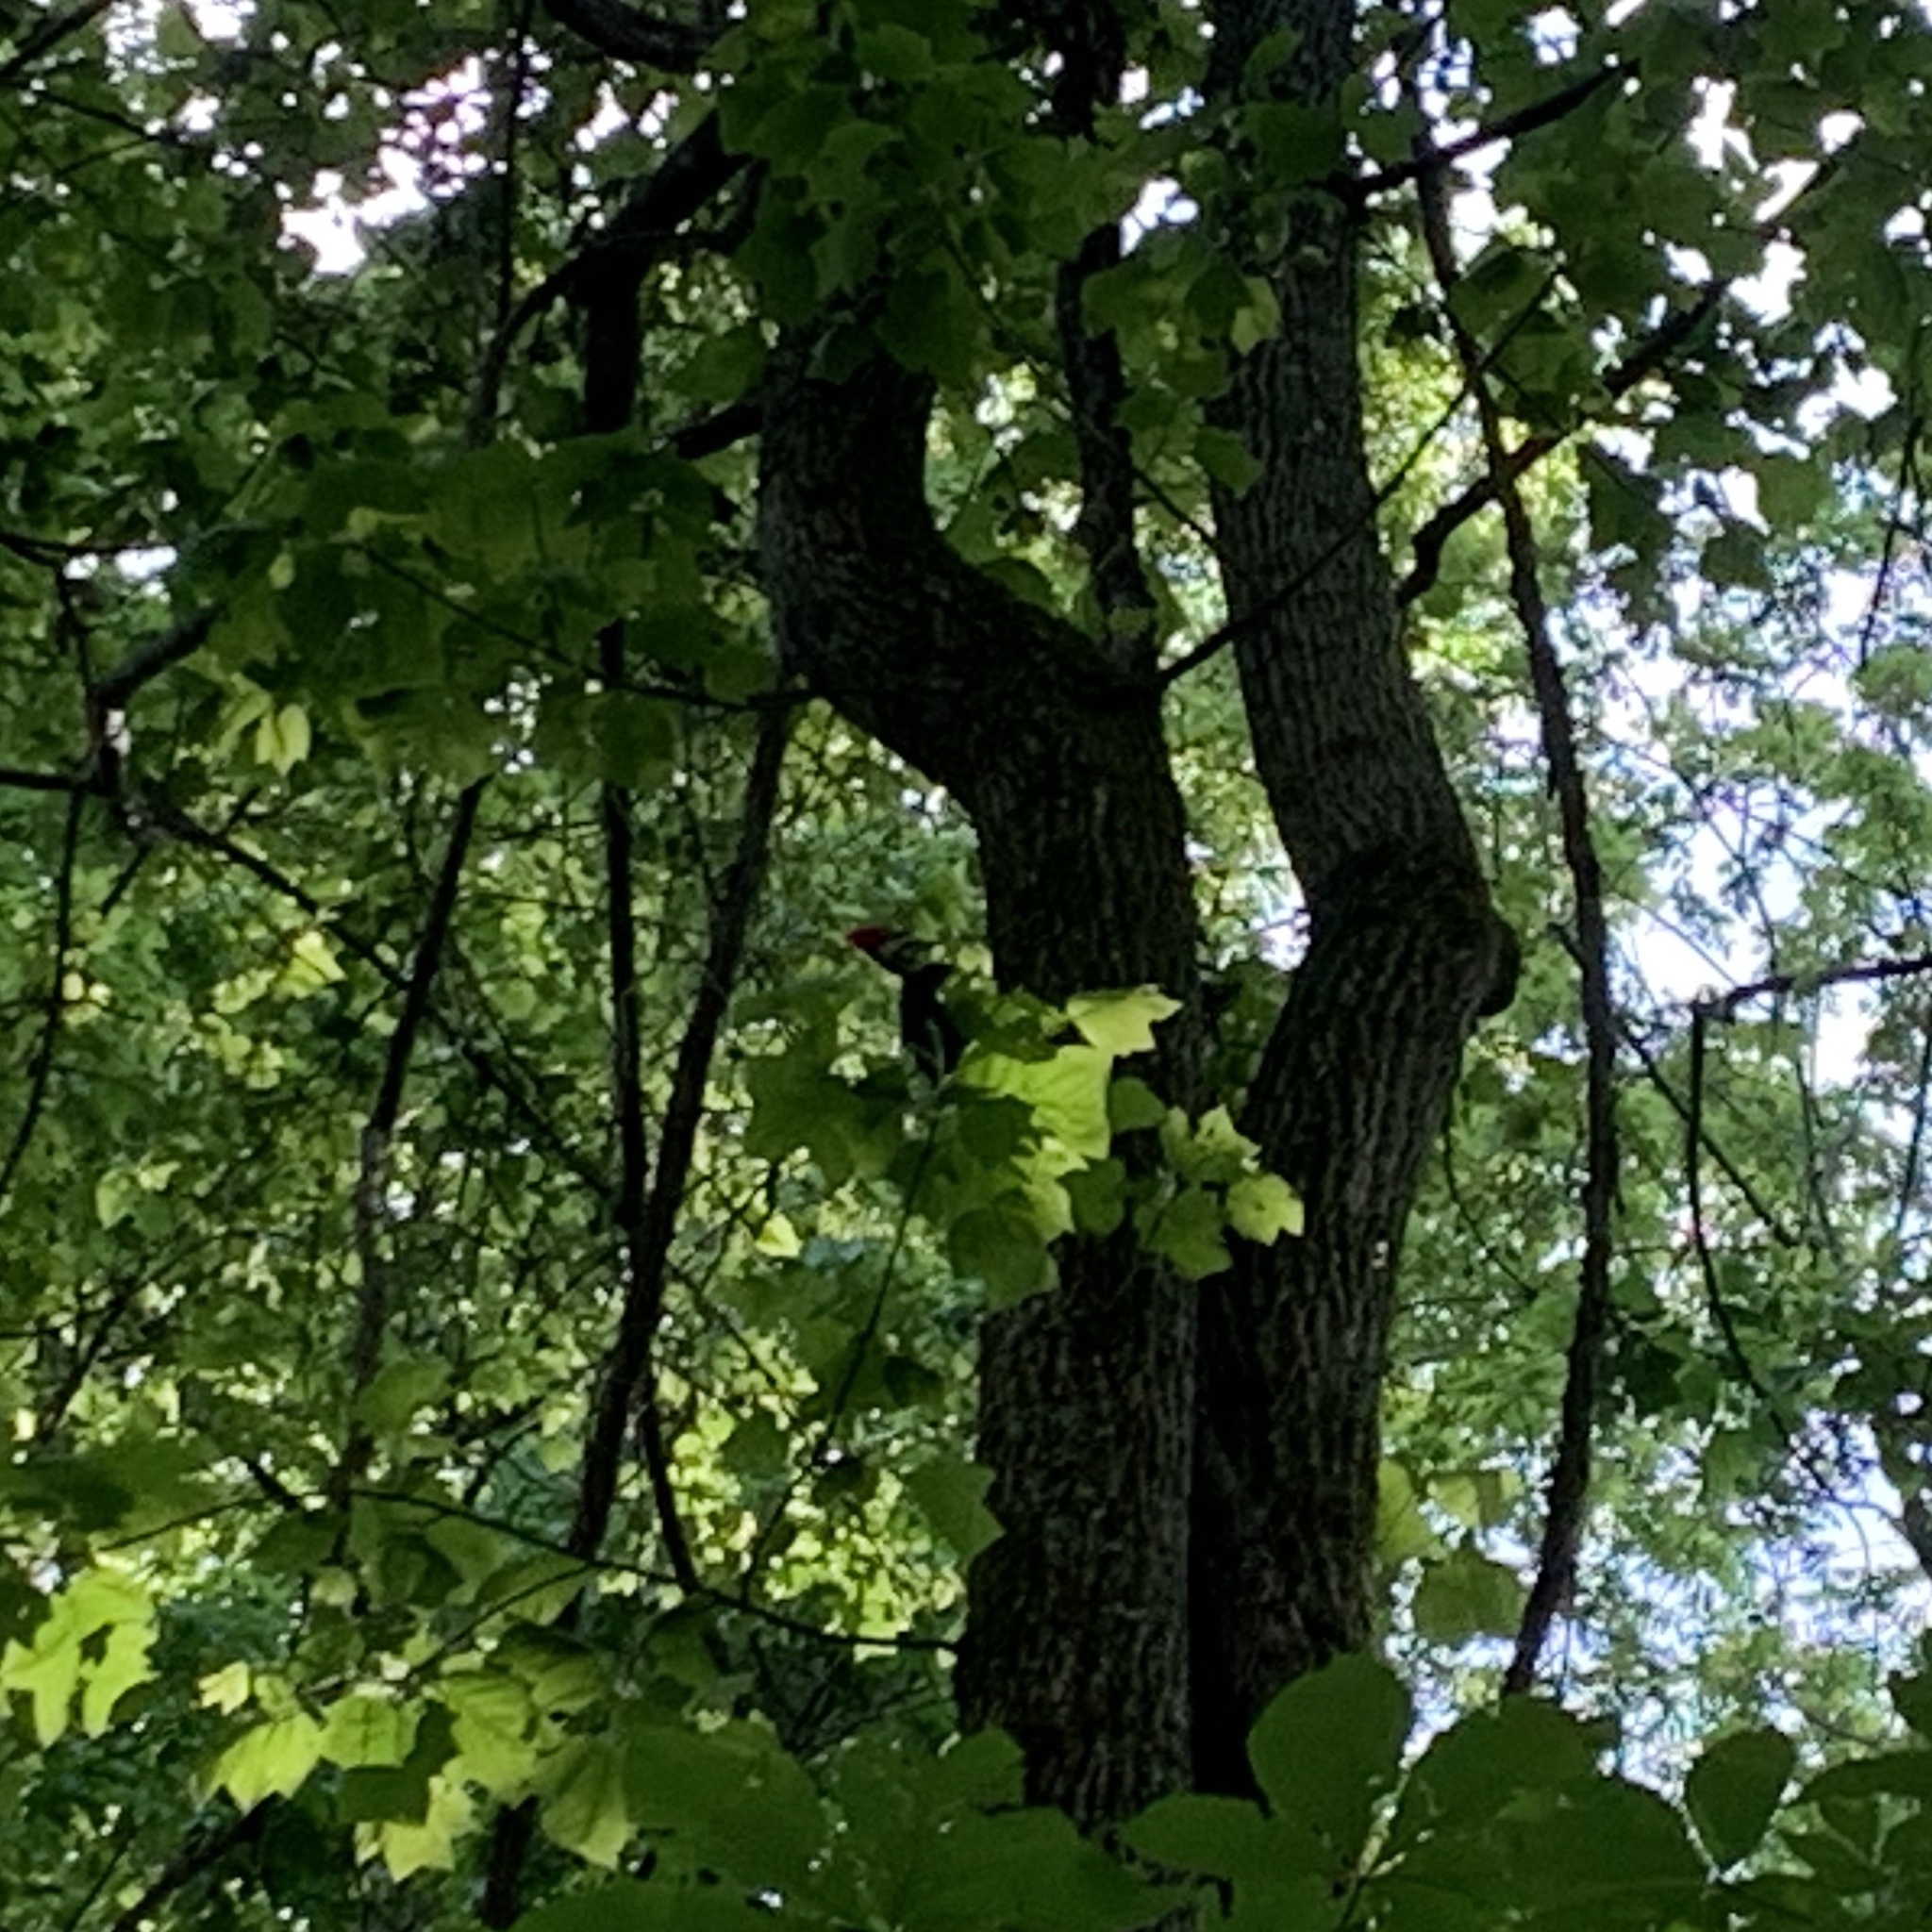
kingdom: Animalia
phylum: Chordata
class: Aves
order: Piciformes
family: Picidae
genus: Dryocopus
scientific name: Dryocopus pileatus
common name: Pileated woodpecker
